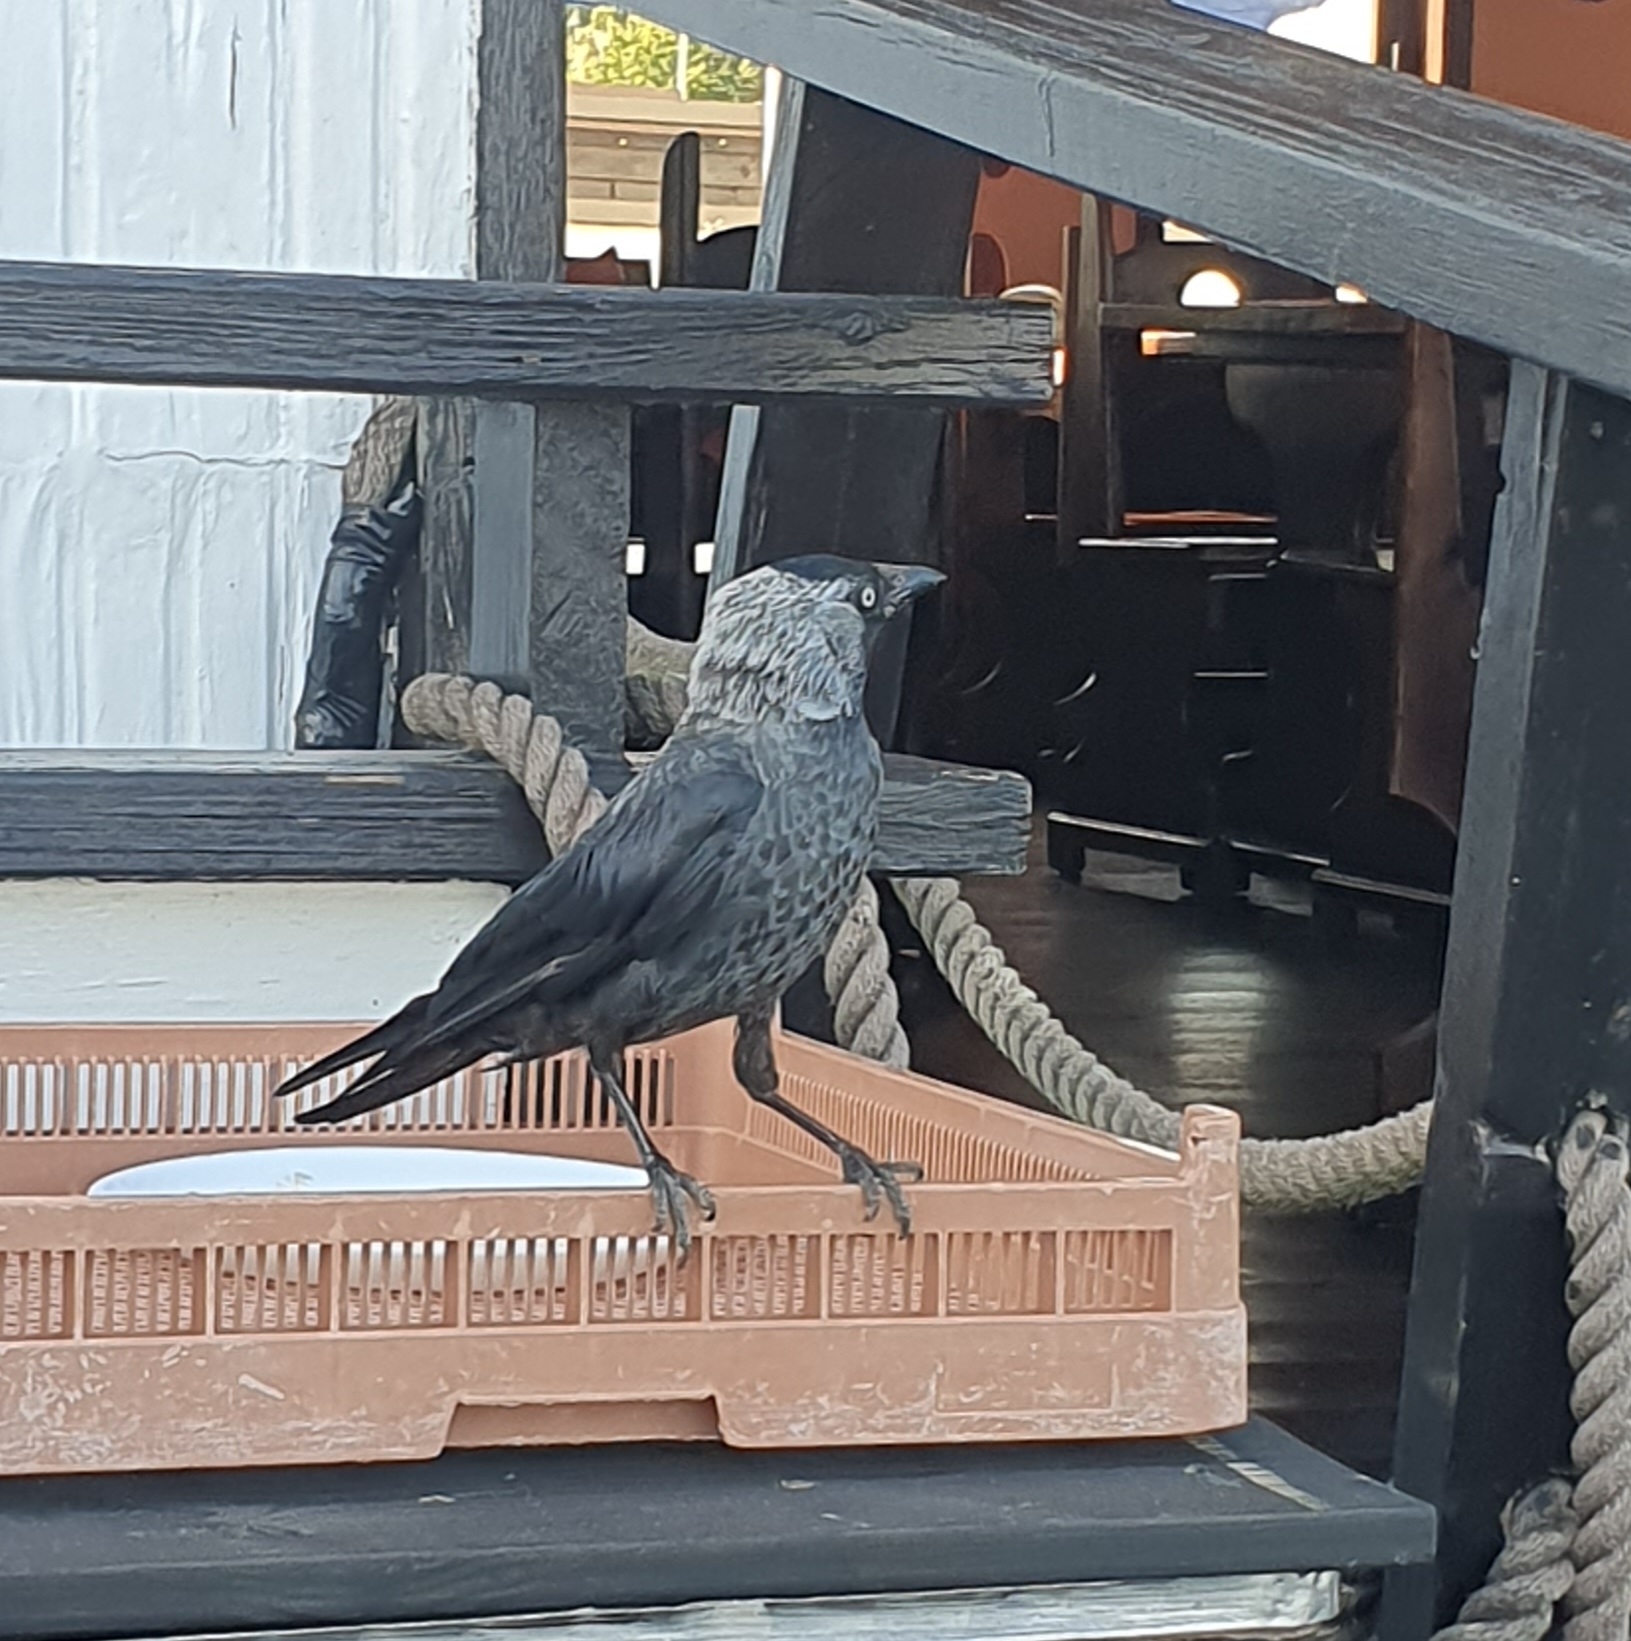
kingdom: Animalia
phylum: Chordata
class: Aves
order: Passeriformes
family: Corvidae
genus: Coloeus
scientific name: Coloeus monedula
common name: Western jackdaw
